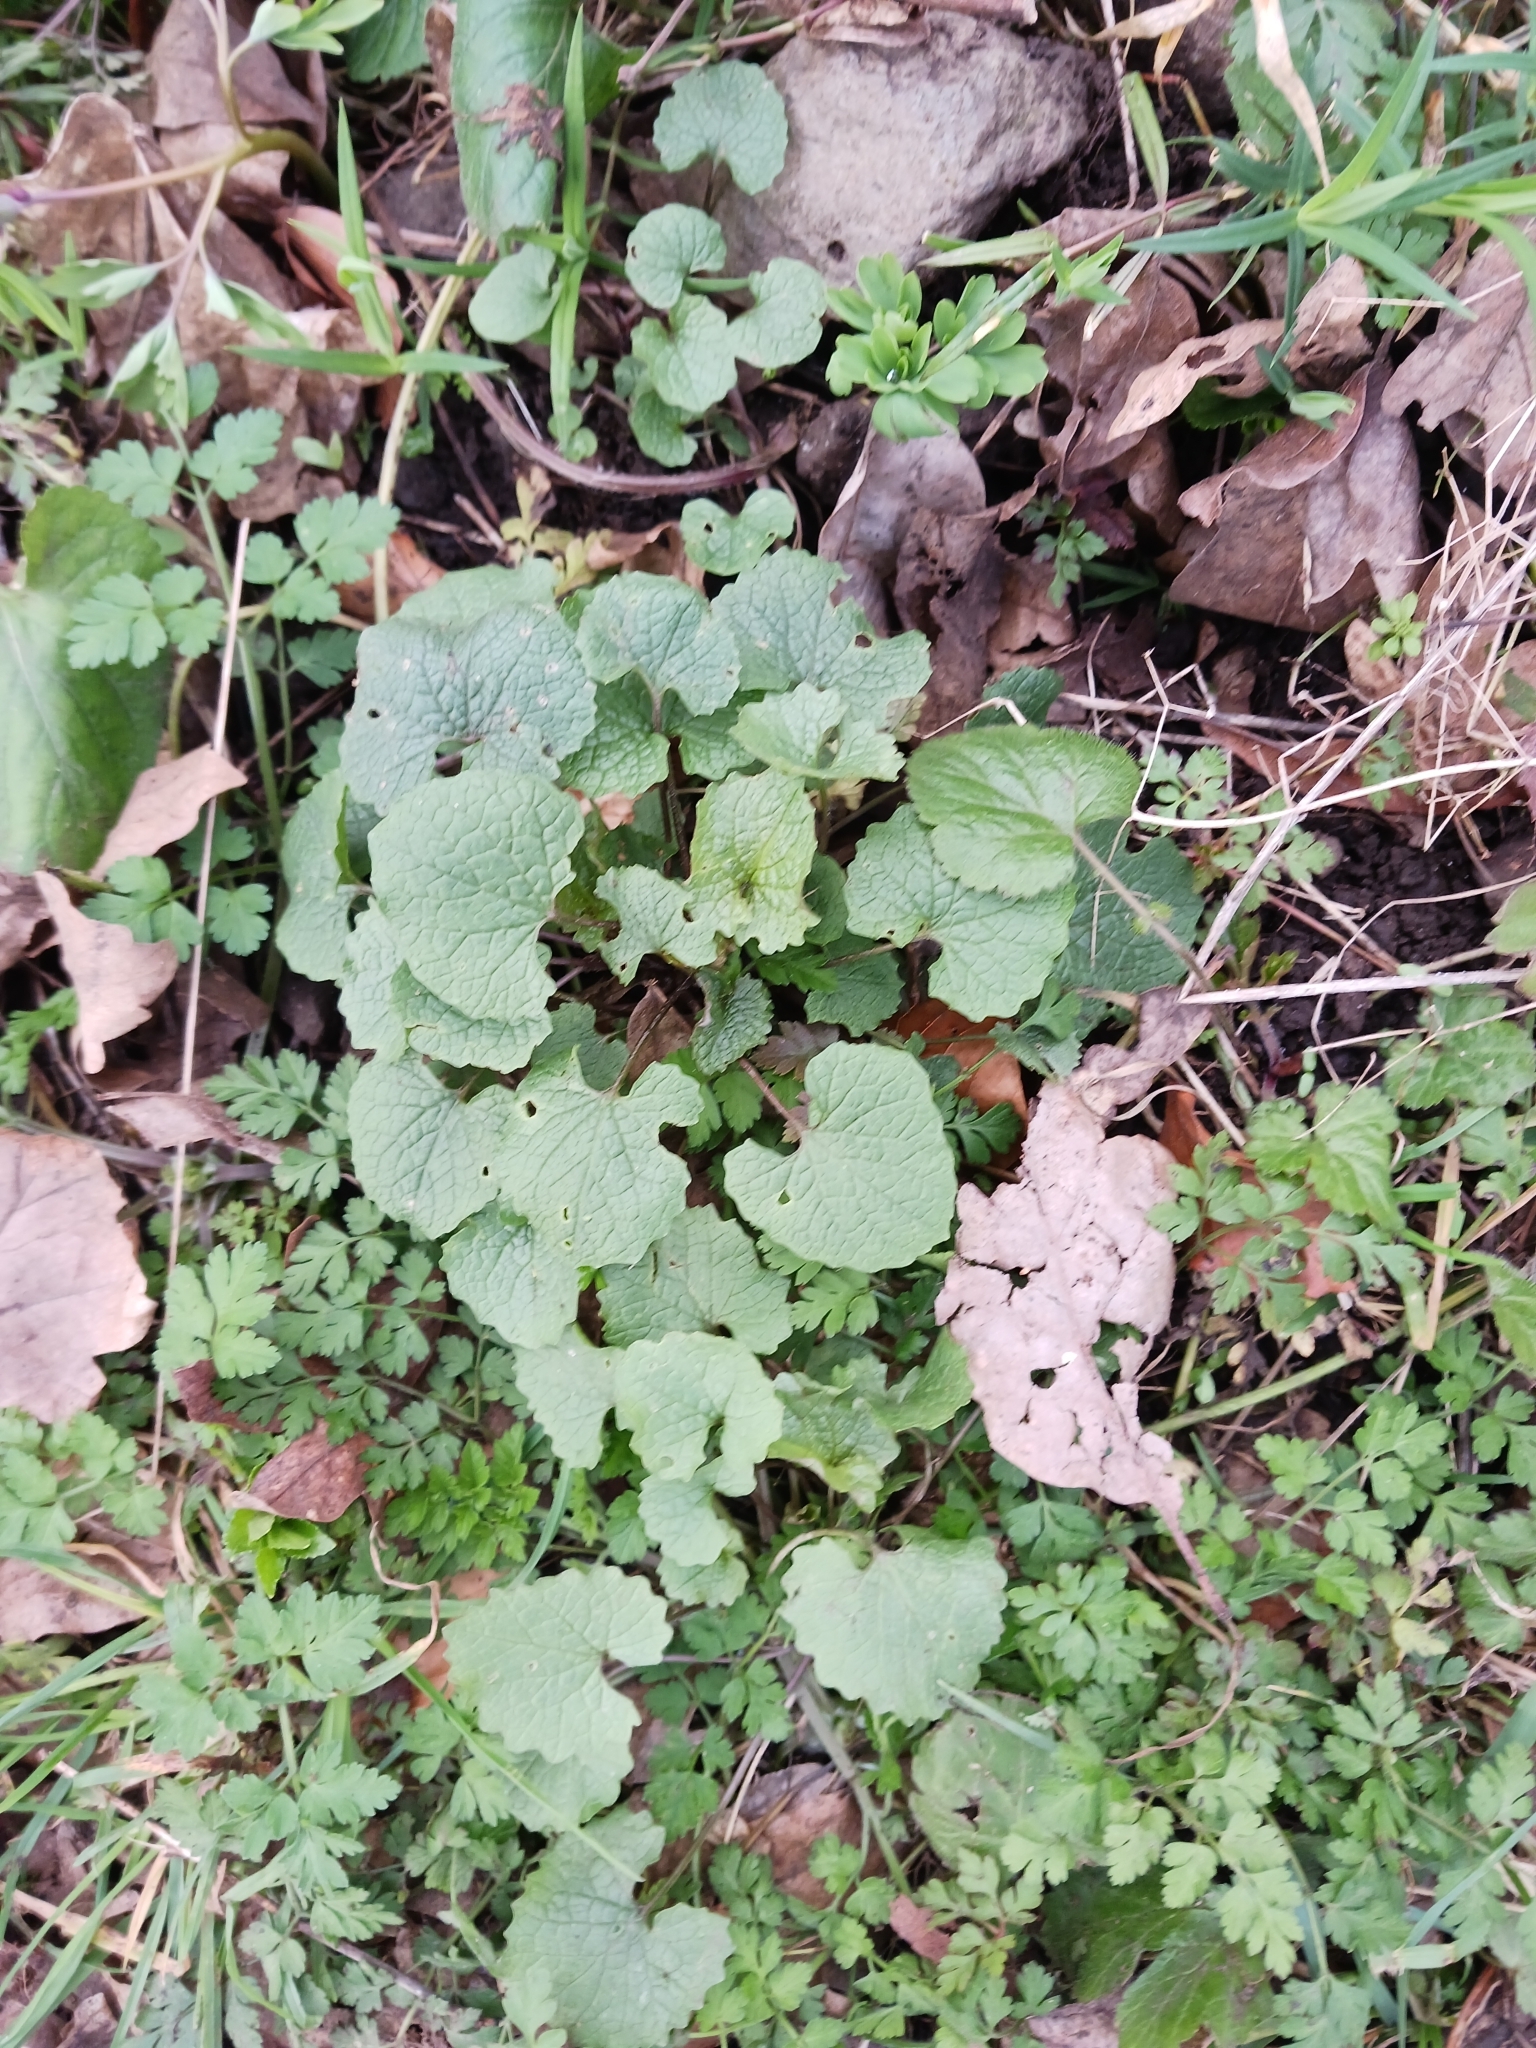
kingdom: Plantae
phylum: Tracheophyta
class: Magnoliopsida
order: Brassicales
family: Brassicaceae
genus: Alliaria
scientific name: Alliaria petiolata
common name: Garlic mustard
